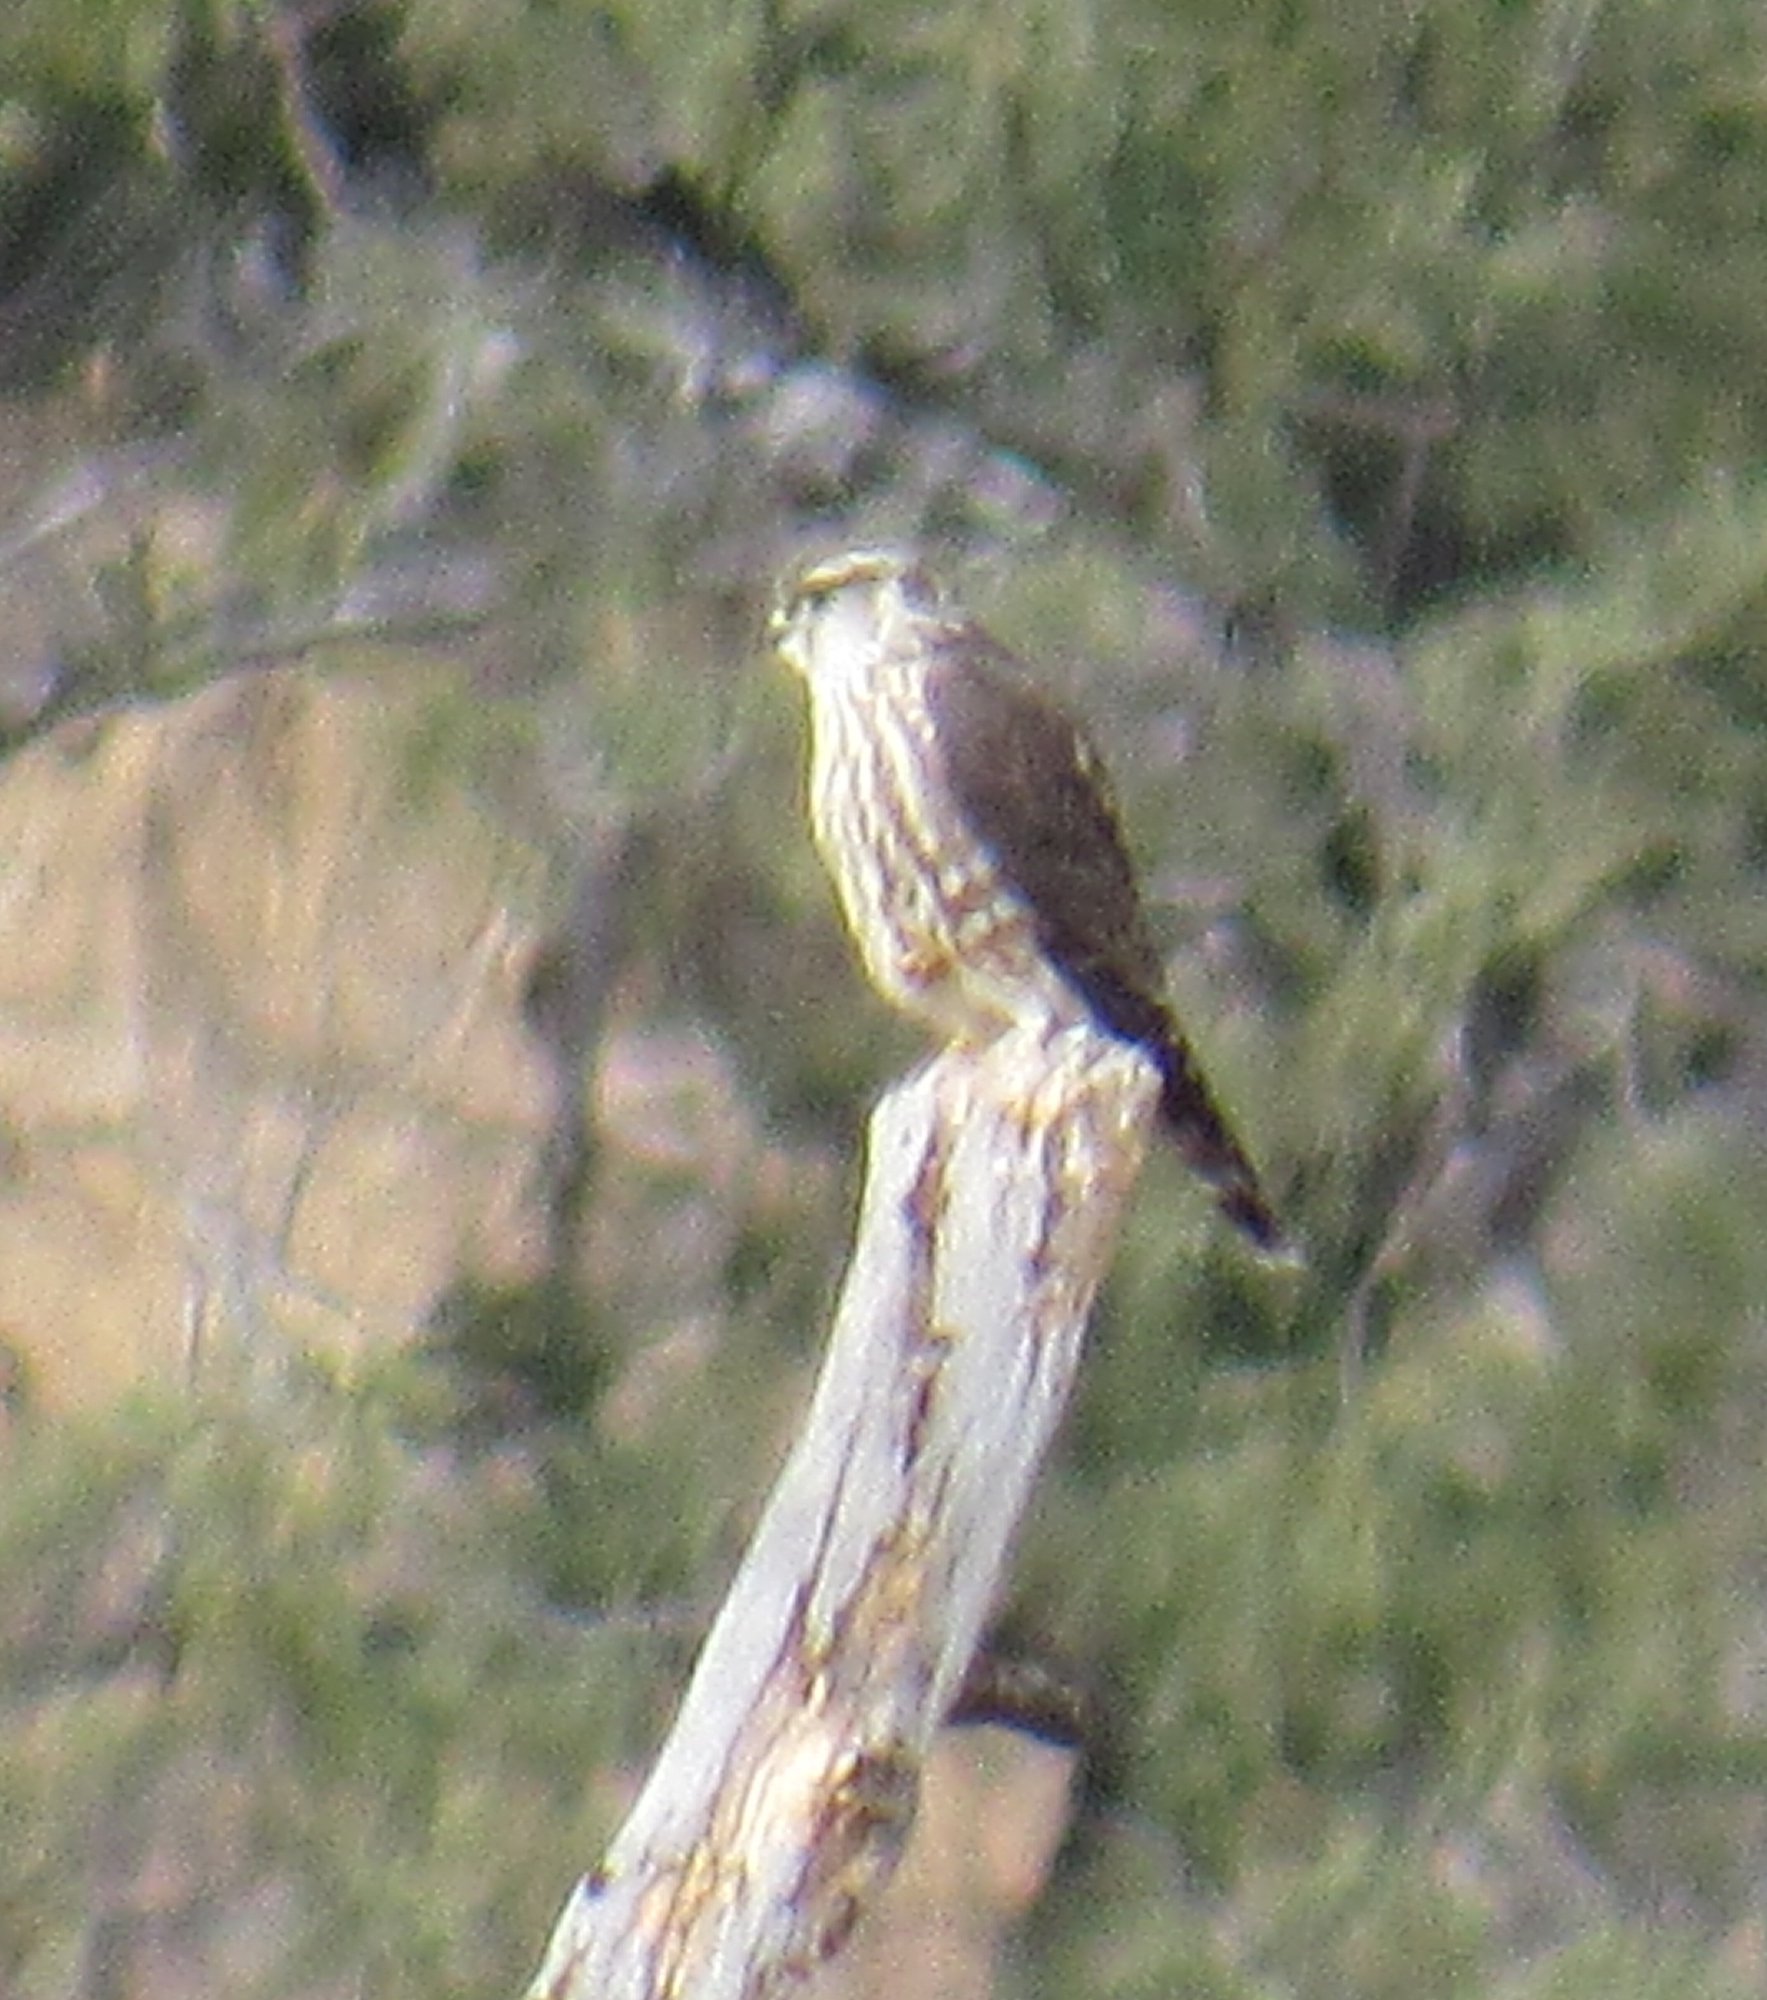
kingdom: Animalia
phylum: Chordata
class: Aves
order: Falconiformes
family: Falconidae
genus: Falco
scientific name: Falco columbarius
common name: Merlin
